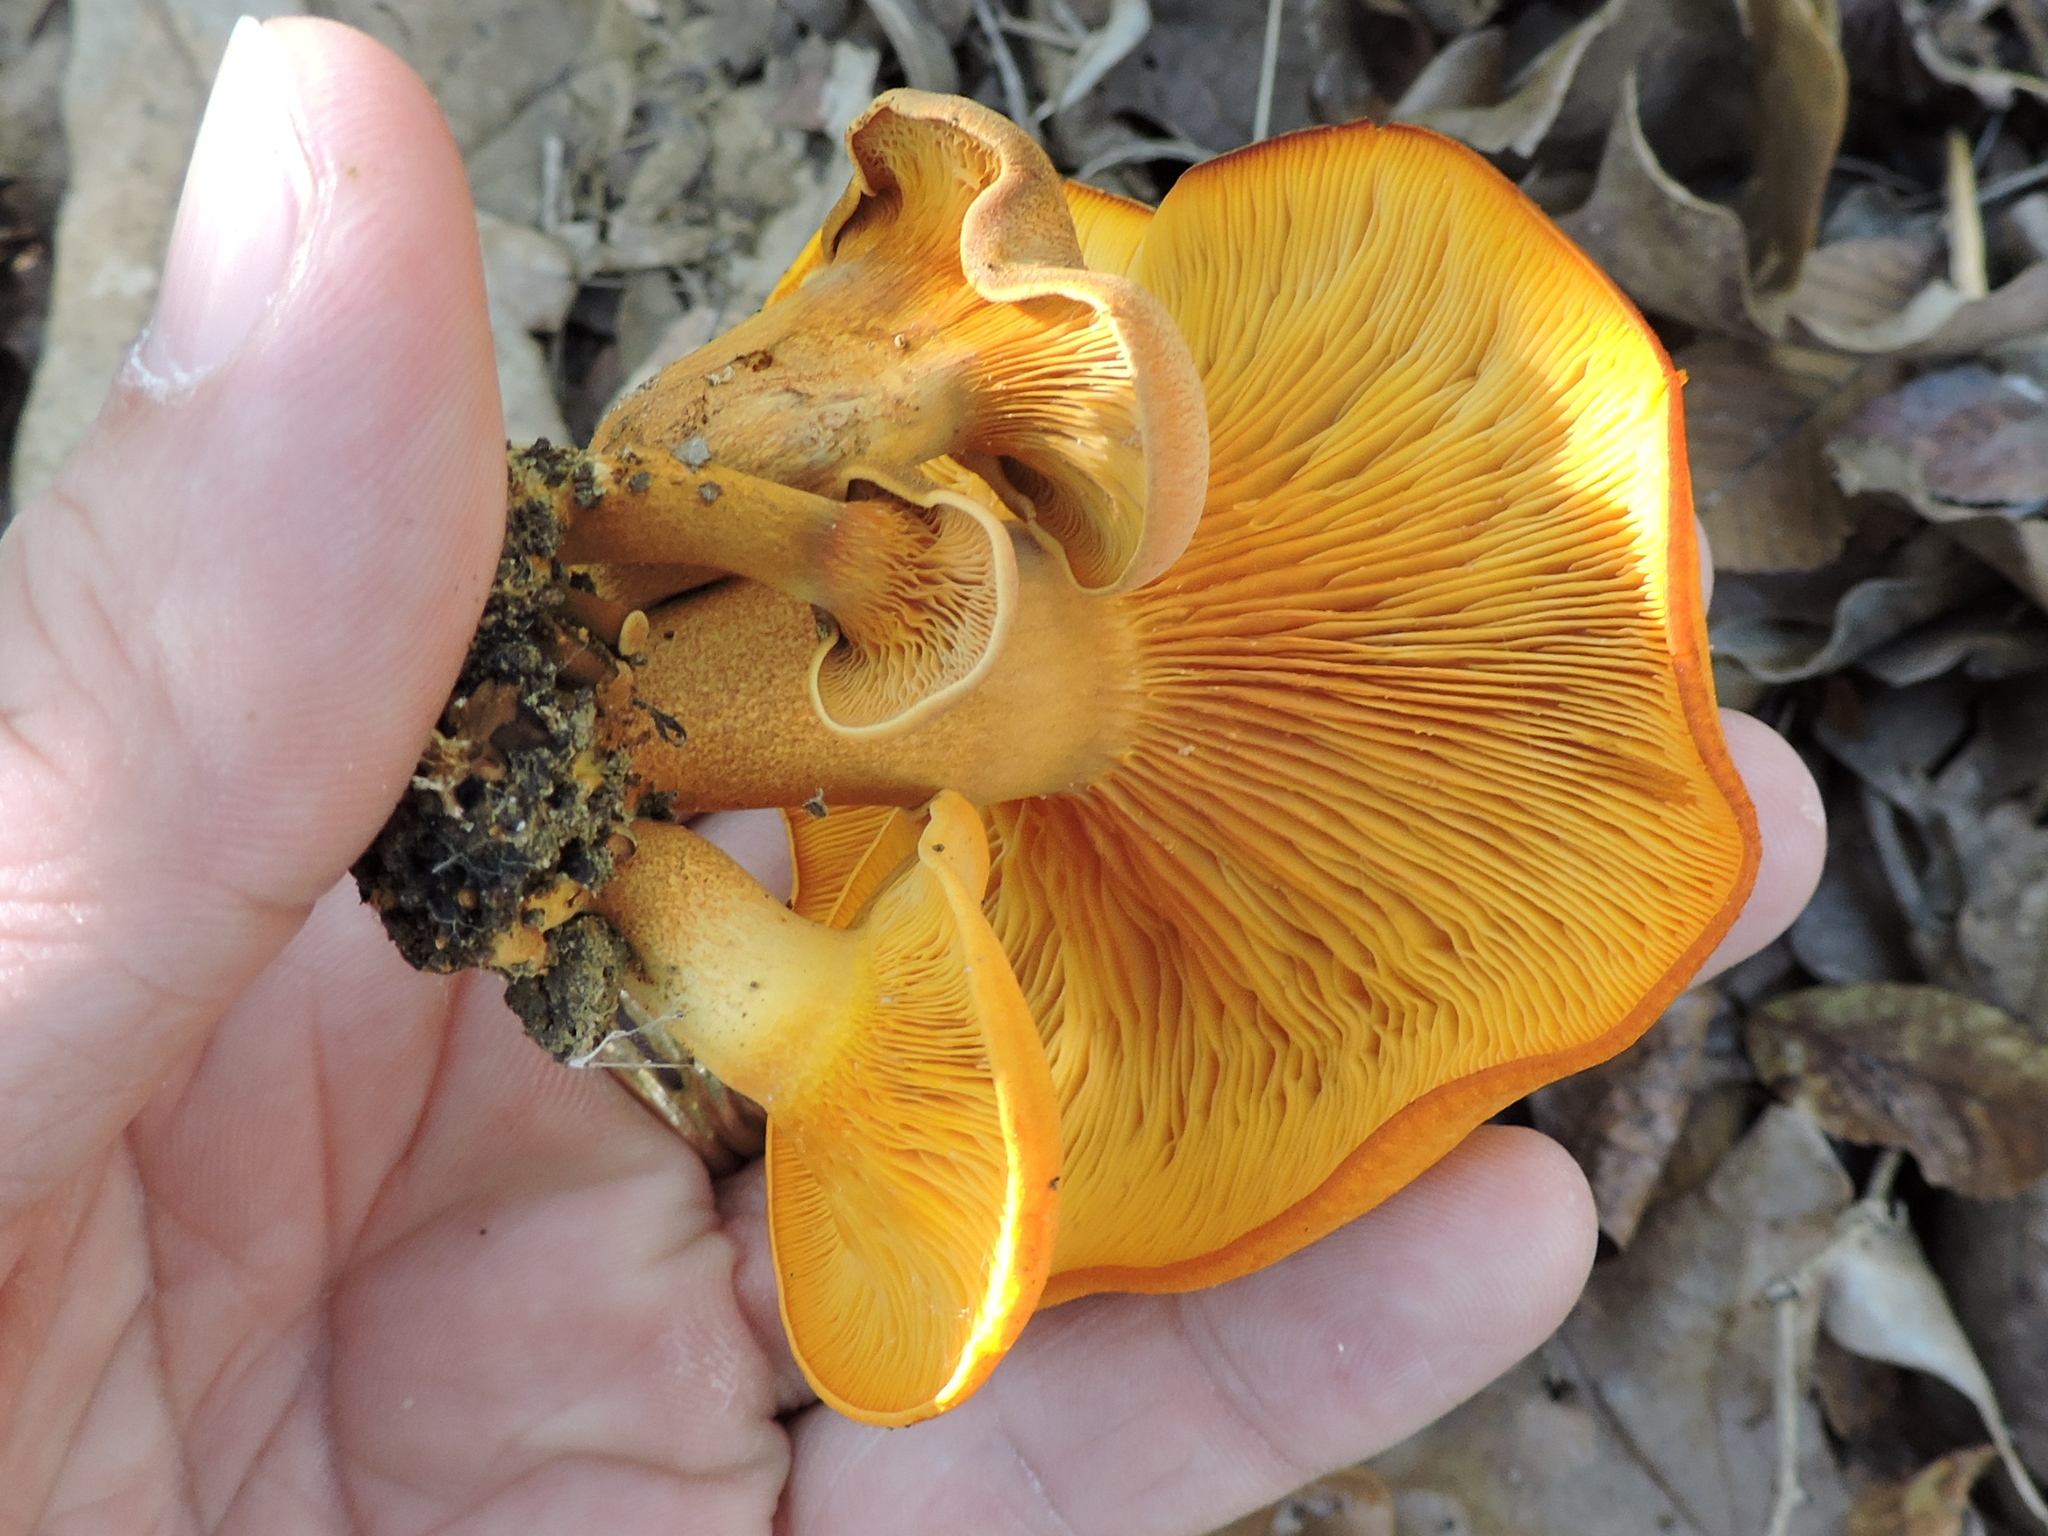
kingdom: Fungi
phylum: Basidiomycota
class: Agaricomycetes
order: Agaricales
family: Omphalotaceae
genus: Omphalotus
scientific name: Omphalotus illudens
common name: Jack o lantern
